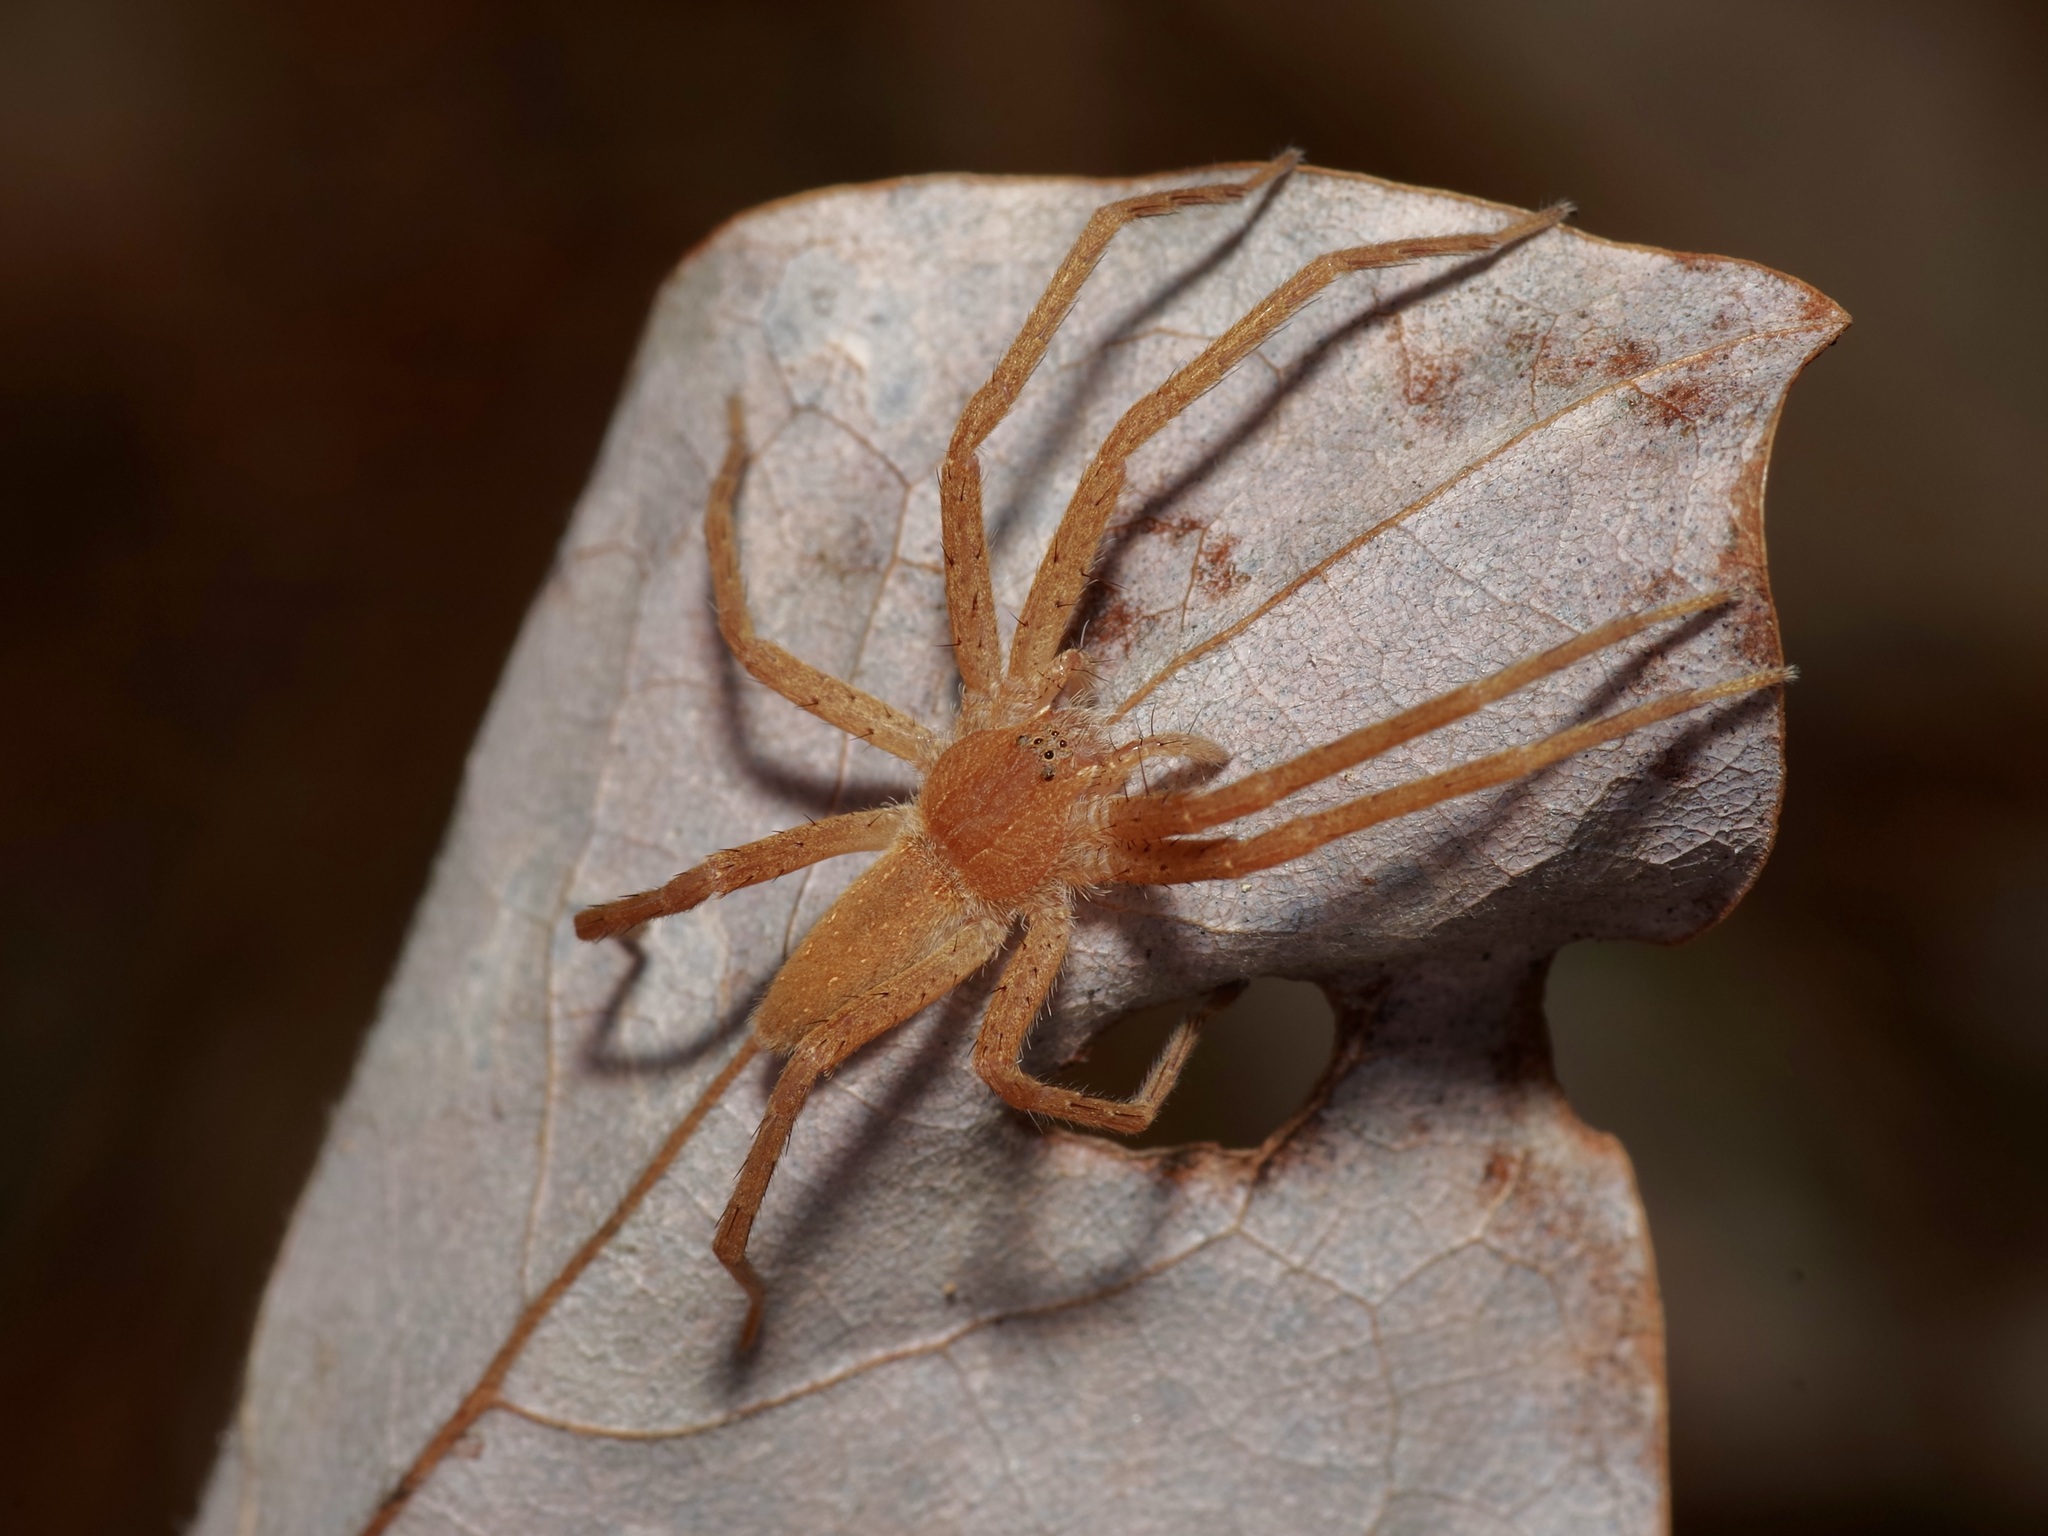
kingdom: Animalia
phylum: Arthropoda
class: Arachnida
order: Araneae
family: Pisauridae
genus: Pisaurina
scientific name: Pisaurina mira
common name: American nursery web spider
